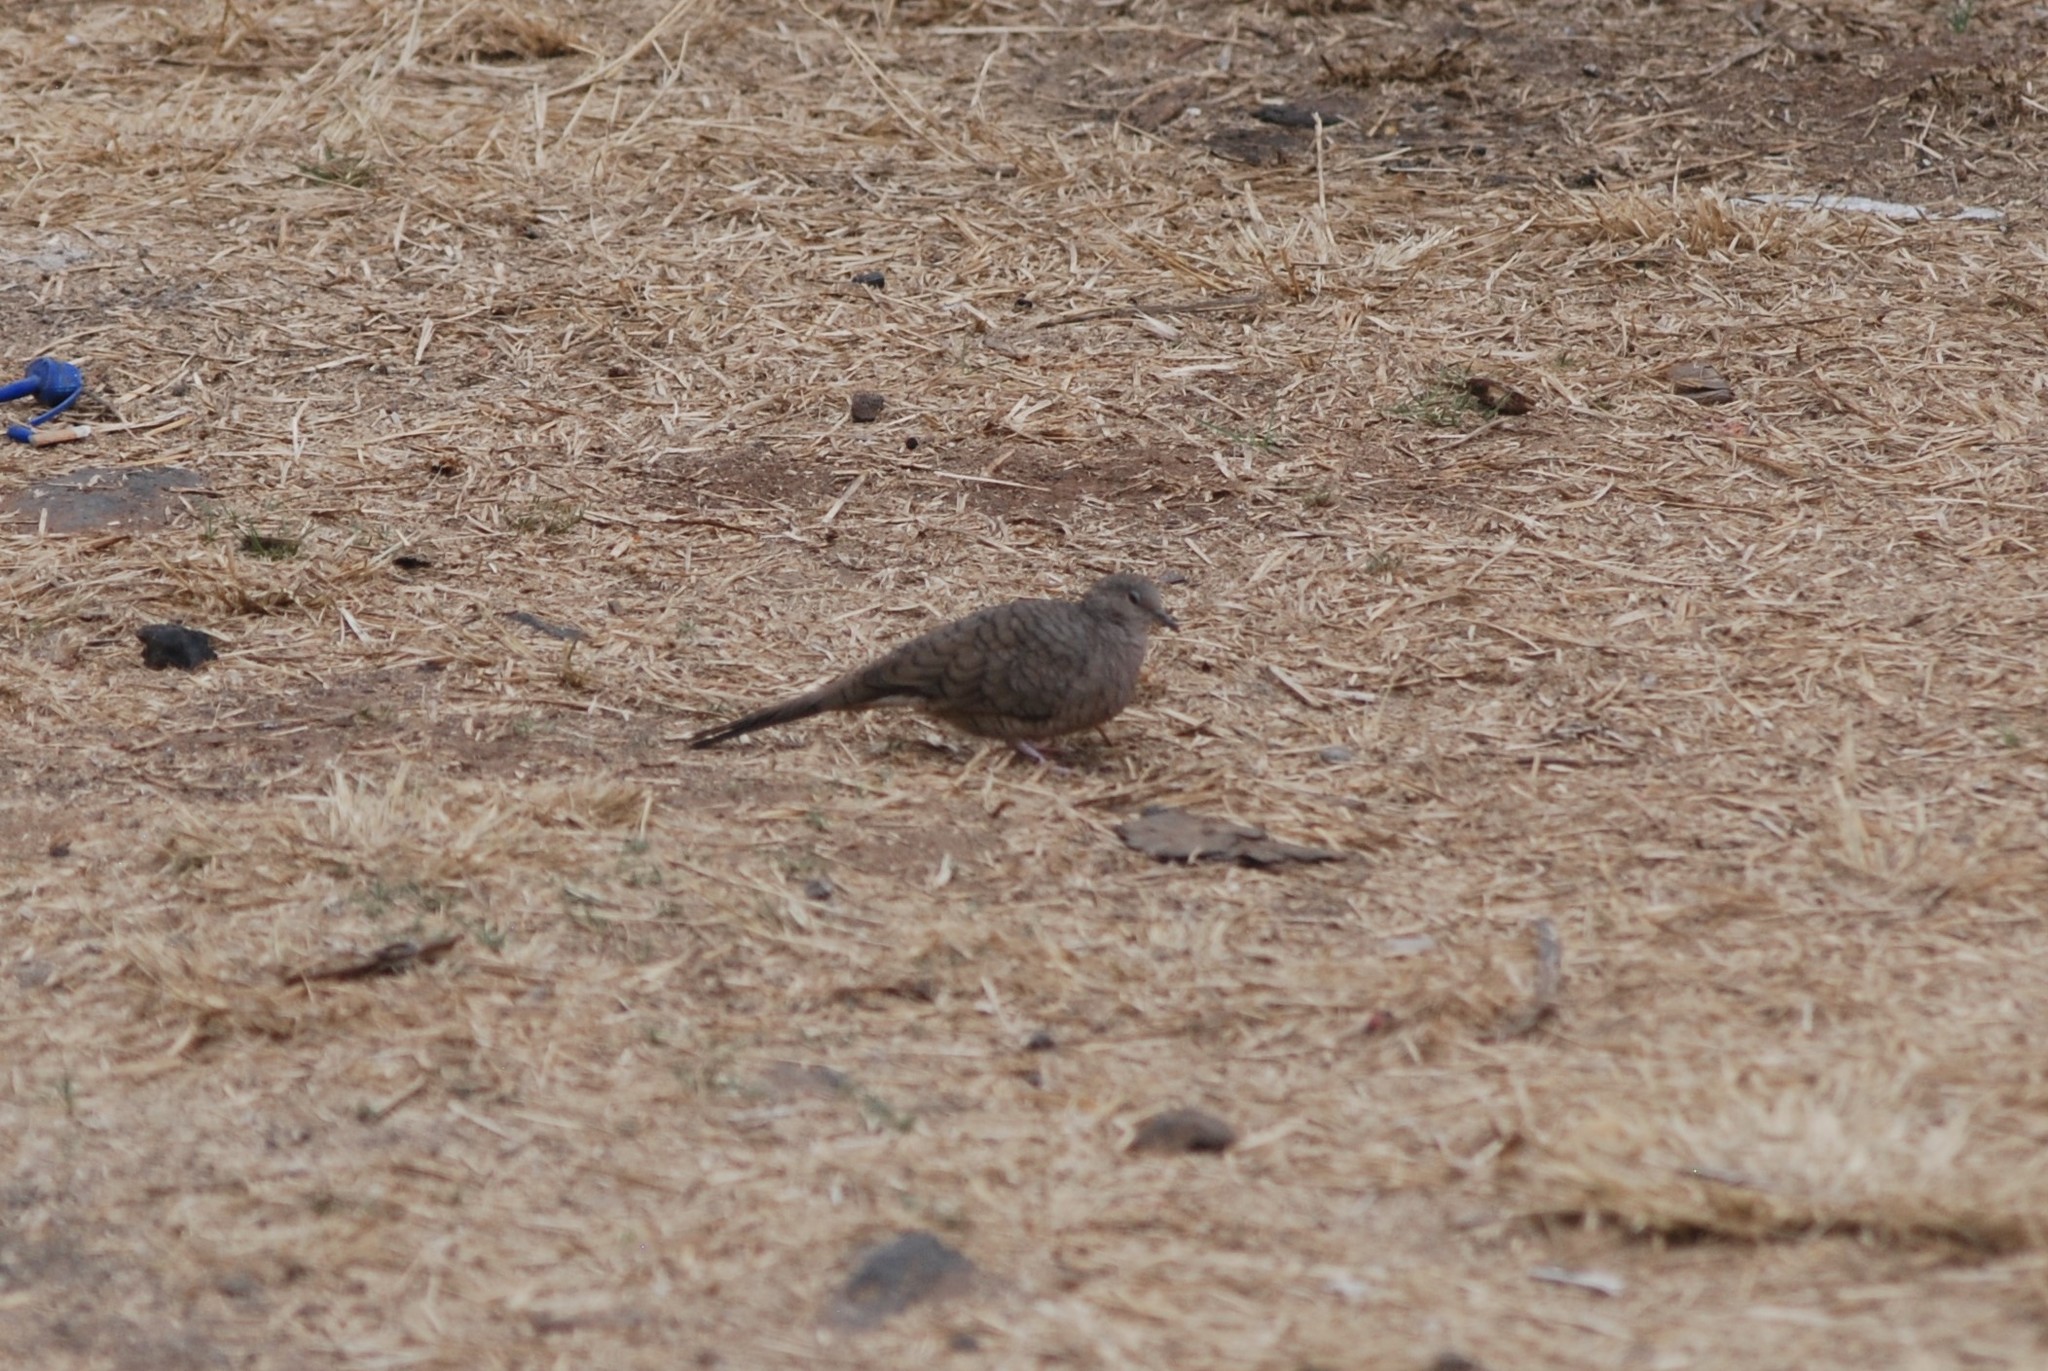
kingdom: Animalia
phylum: Chordata
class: Aves
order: Columbiformes
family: Columbidae
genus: Columbina
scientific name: Columbina inca
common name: Inca dove
